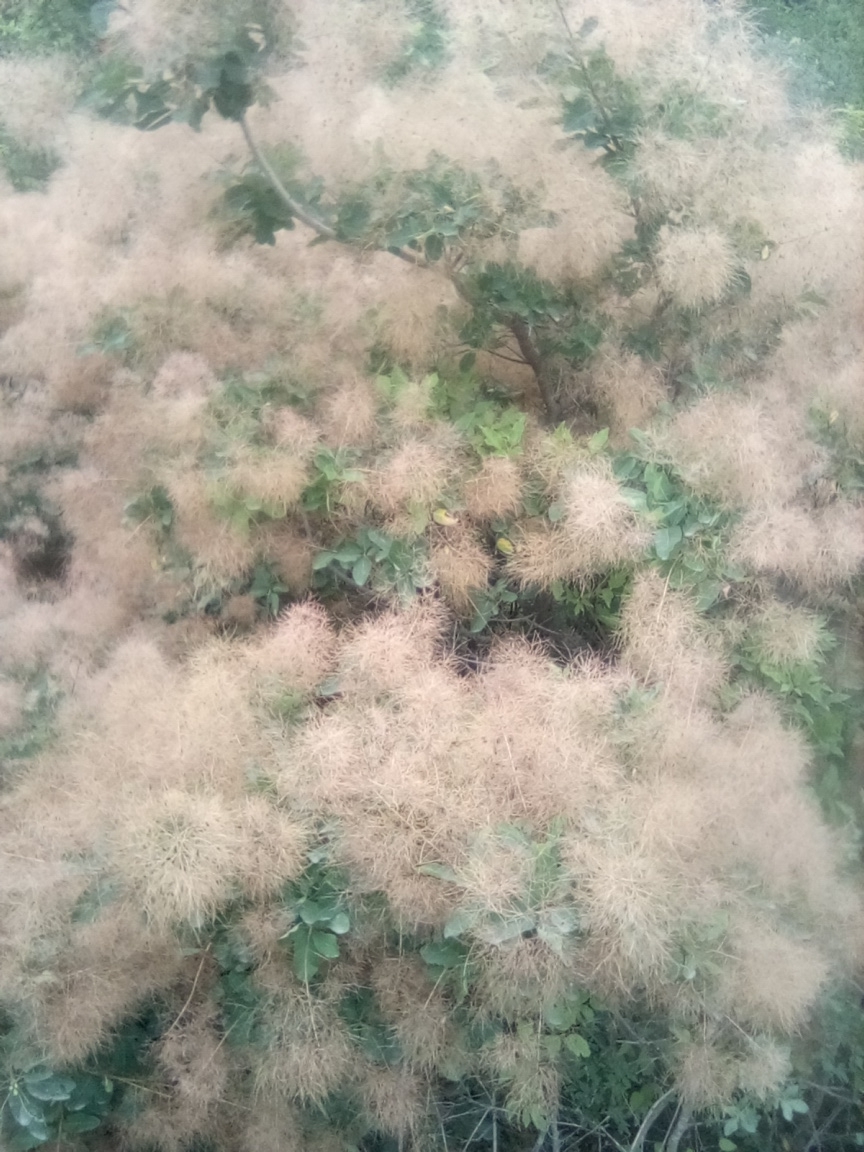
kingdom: Plantae
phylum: Tracheophyta
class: Magnoliopsida
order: Sapindales
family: Anacardiaceae
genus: Cotinus
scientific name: Cotinus coggygria
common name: Smoke-tree
